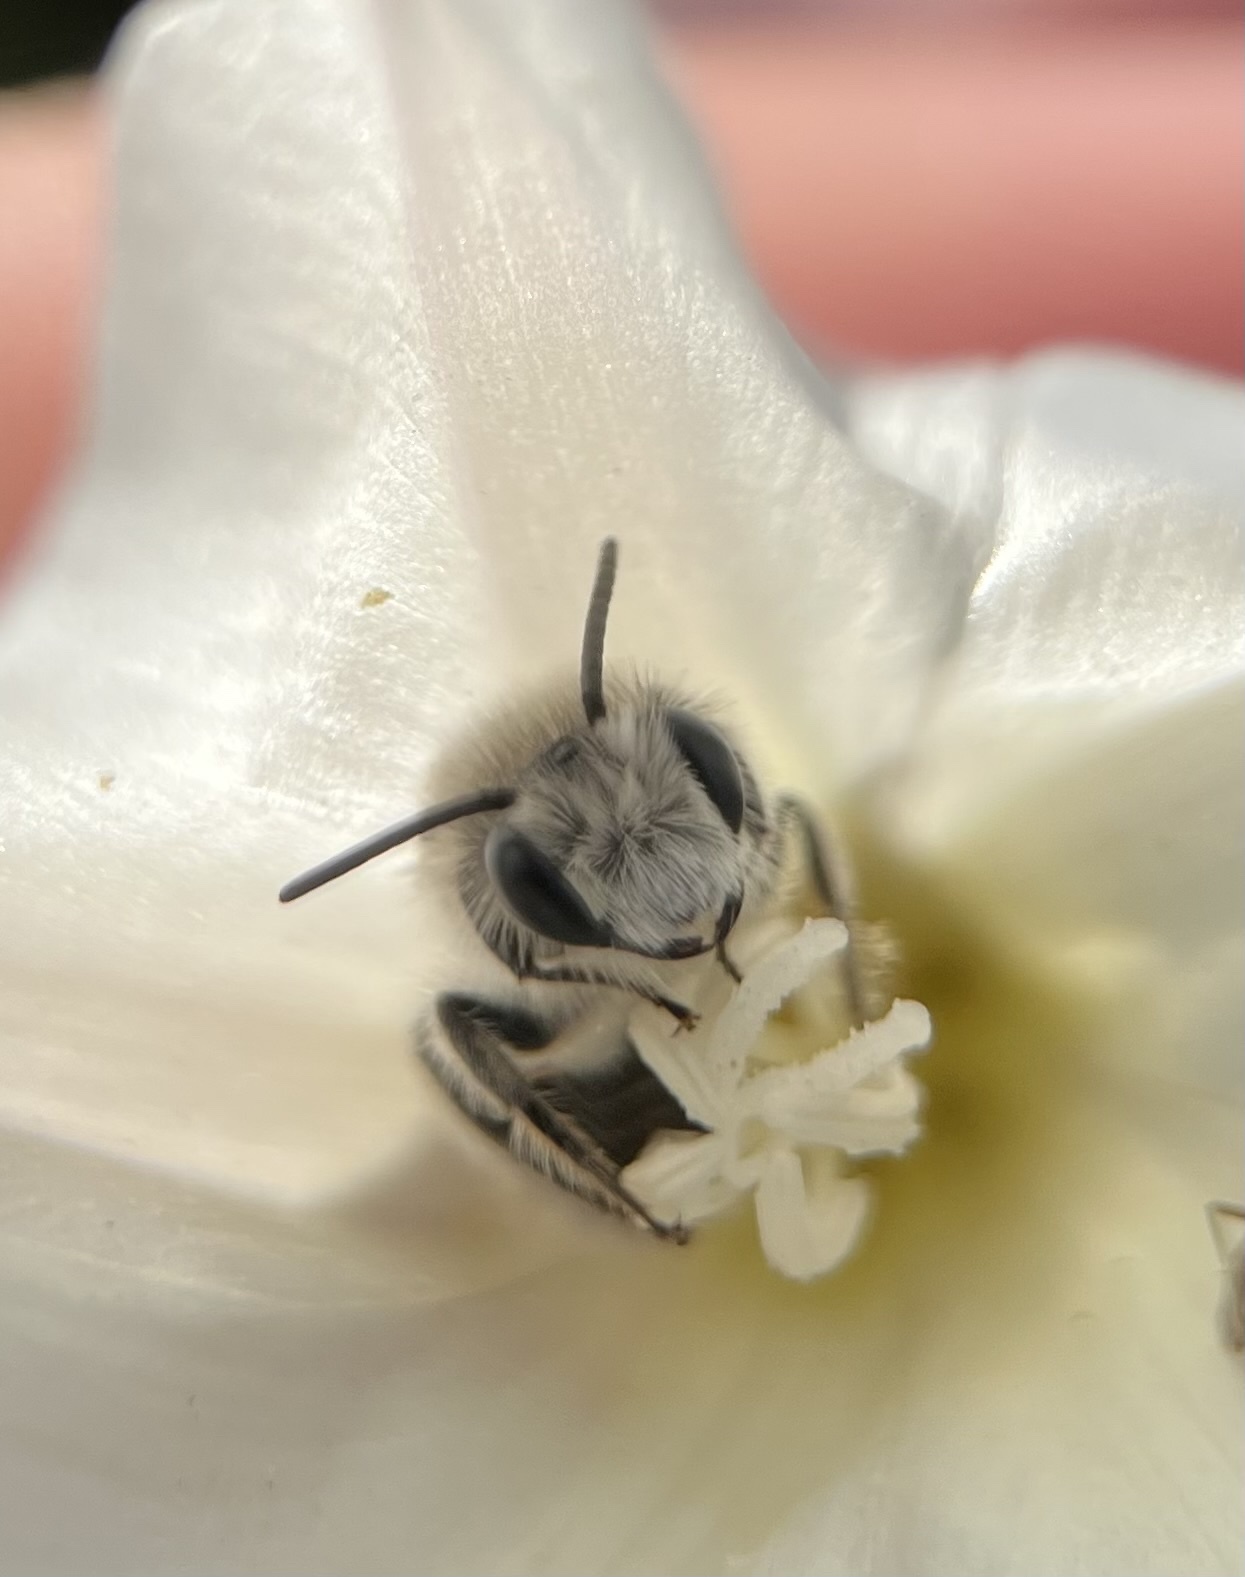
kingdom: Animalia
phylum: Arthropoda
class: Insecta
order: Hymenoptera
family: Andrenidae
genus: Ancylandrena
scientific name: Ancylandrena atoposoma
